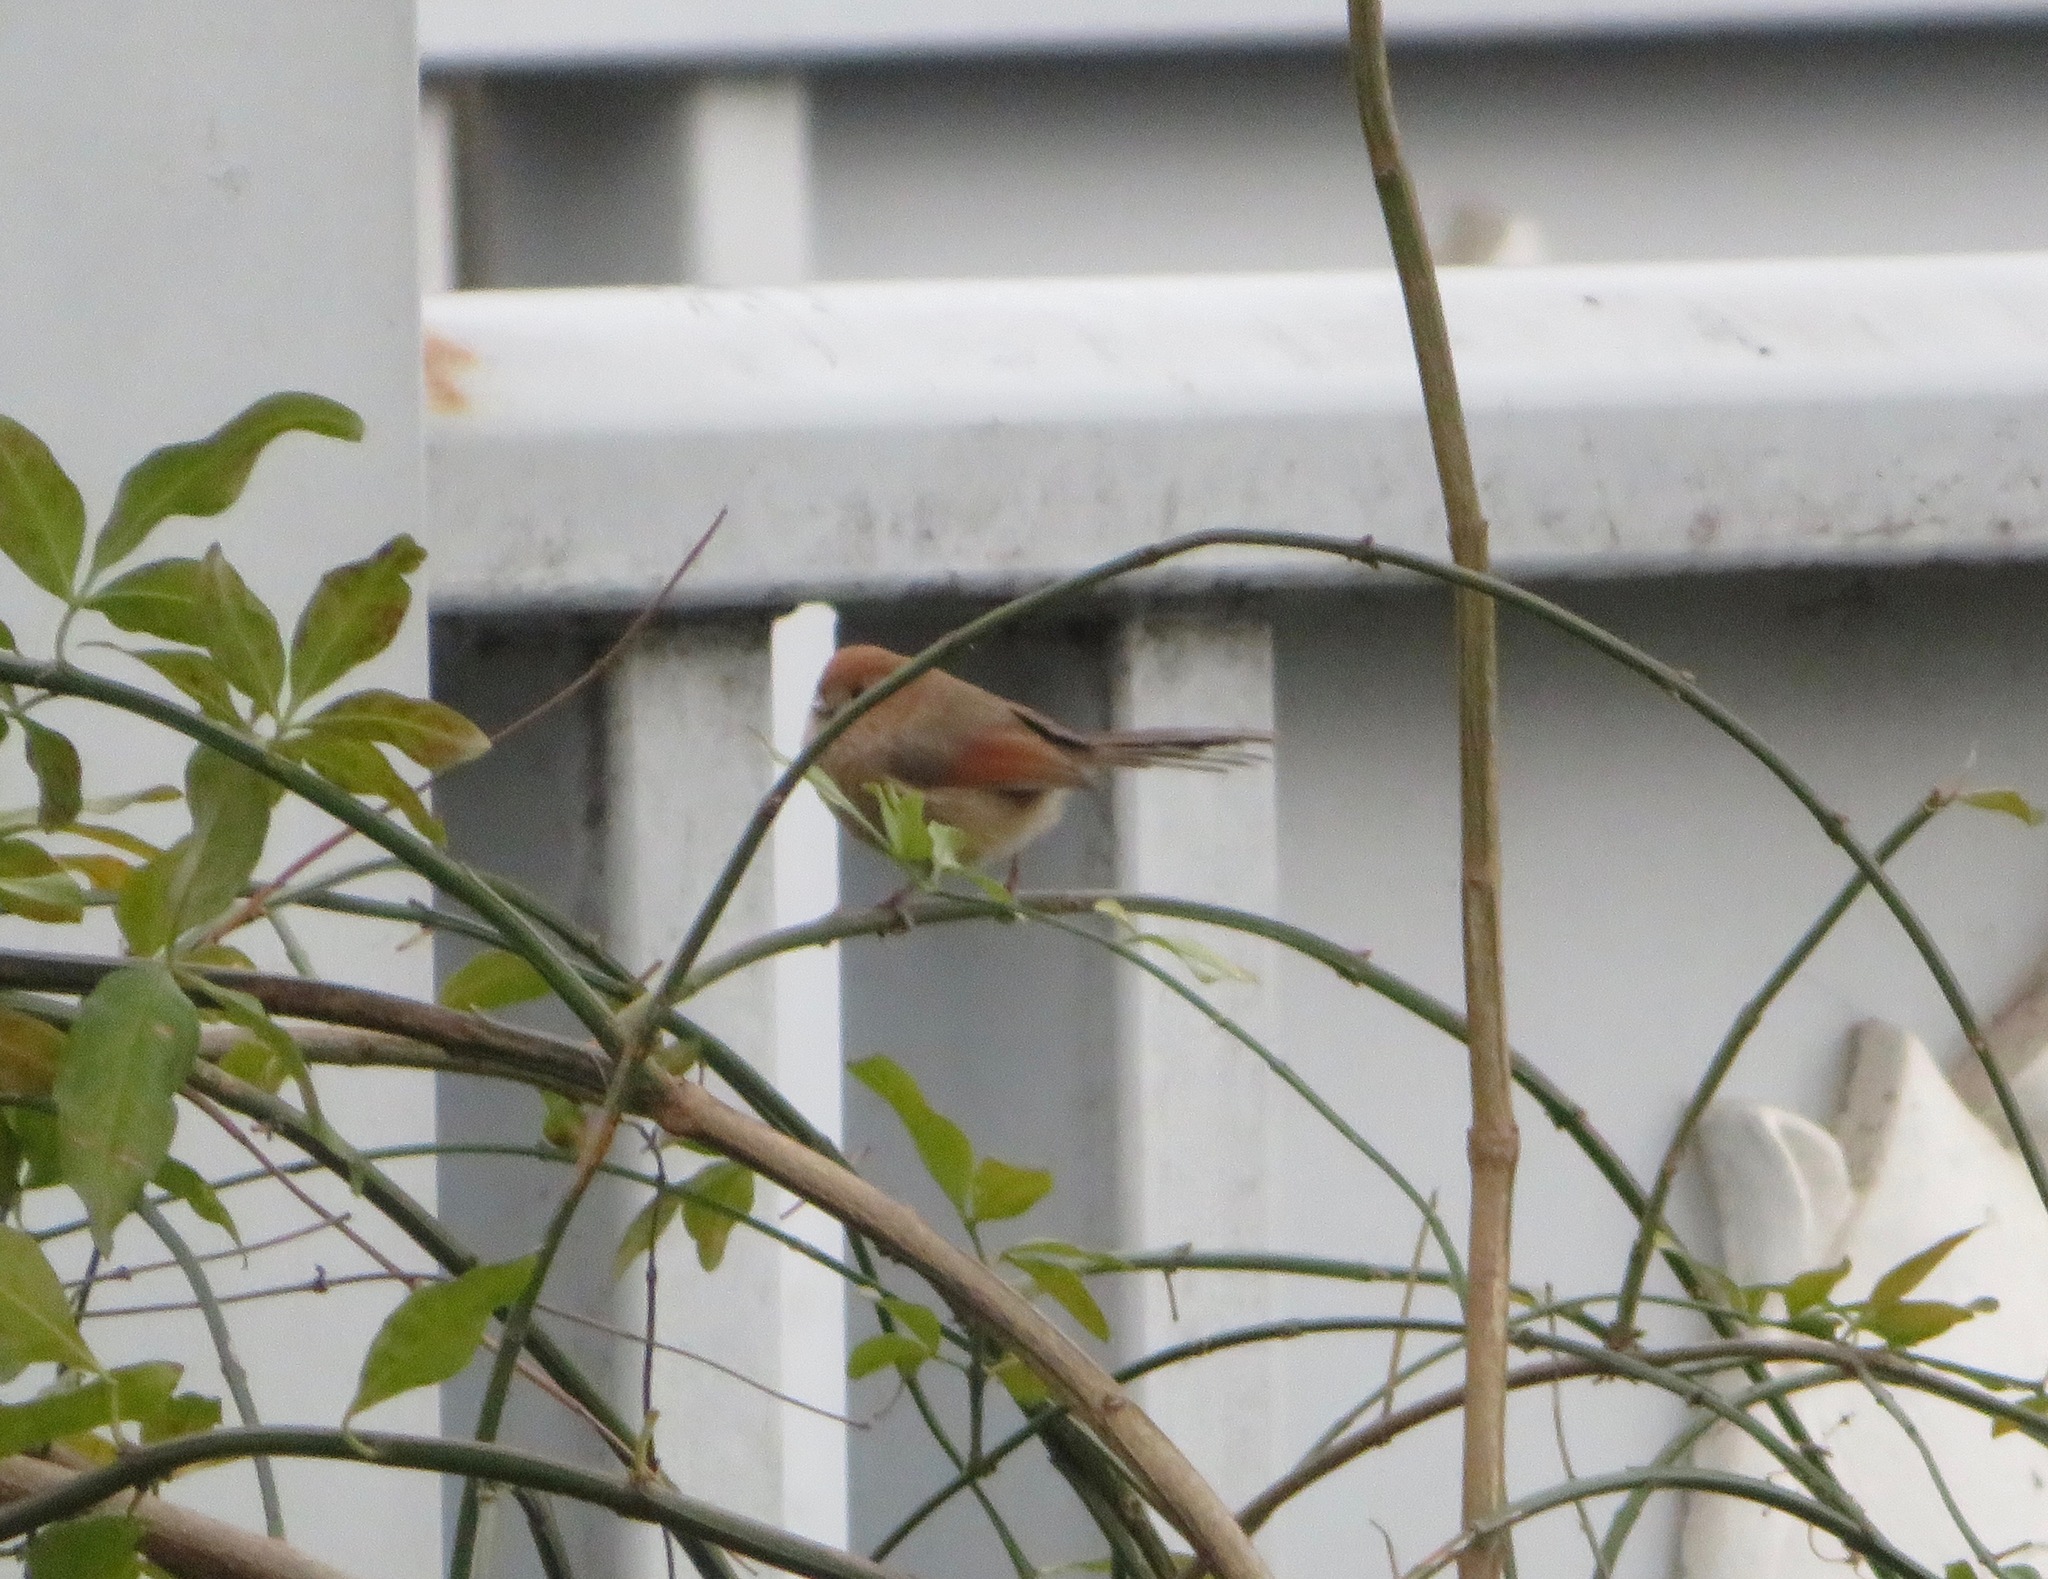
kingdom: Animalia
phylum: Chordata
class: Aves
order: Passeriformes
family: Sylviidae
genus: Sinosuthora
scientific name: Sinosuthora webbiana
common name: Vinous-throated parrotbill
